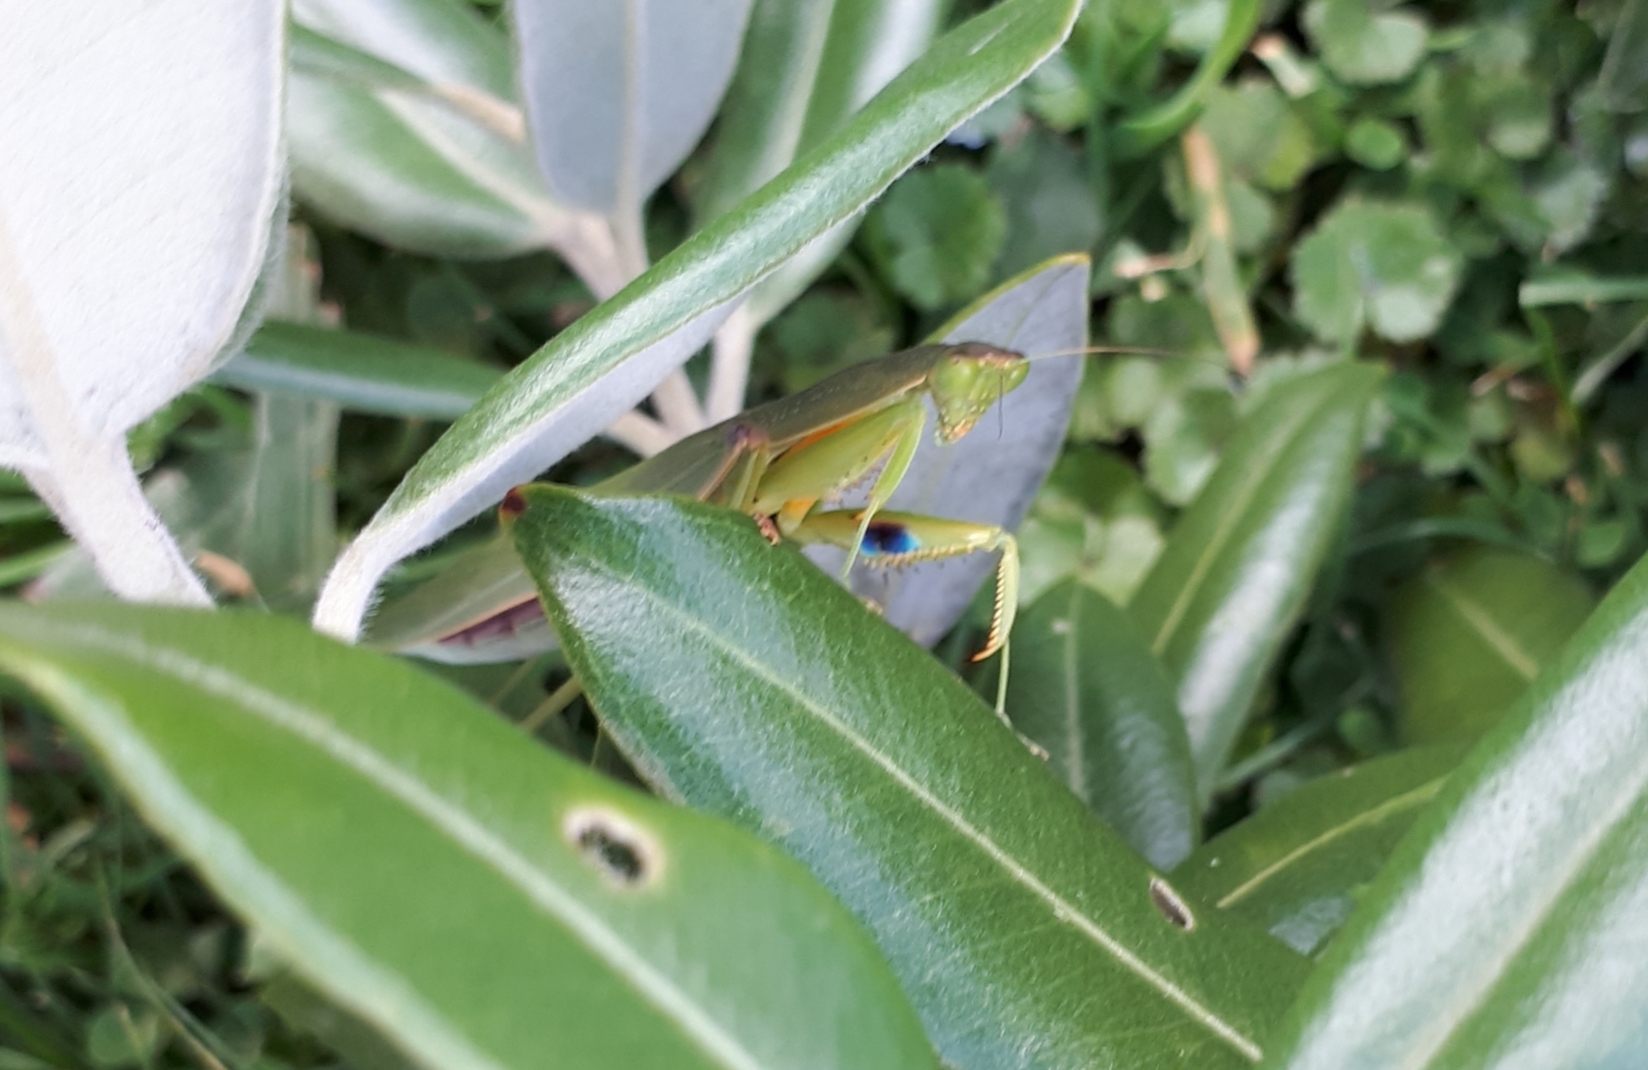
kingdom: Animalia
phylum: Arthropoda
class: Insecta
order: Mantodea
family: Mantidae
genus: Orthodera
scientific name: Orthodera novaezealandiae
